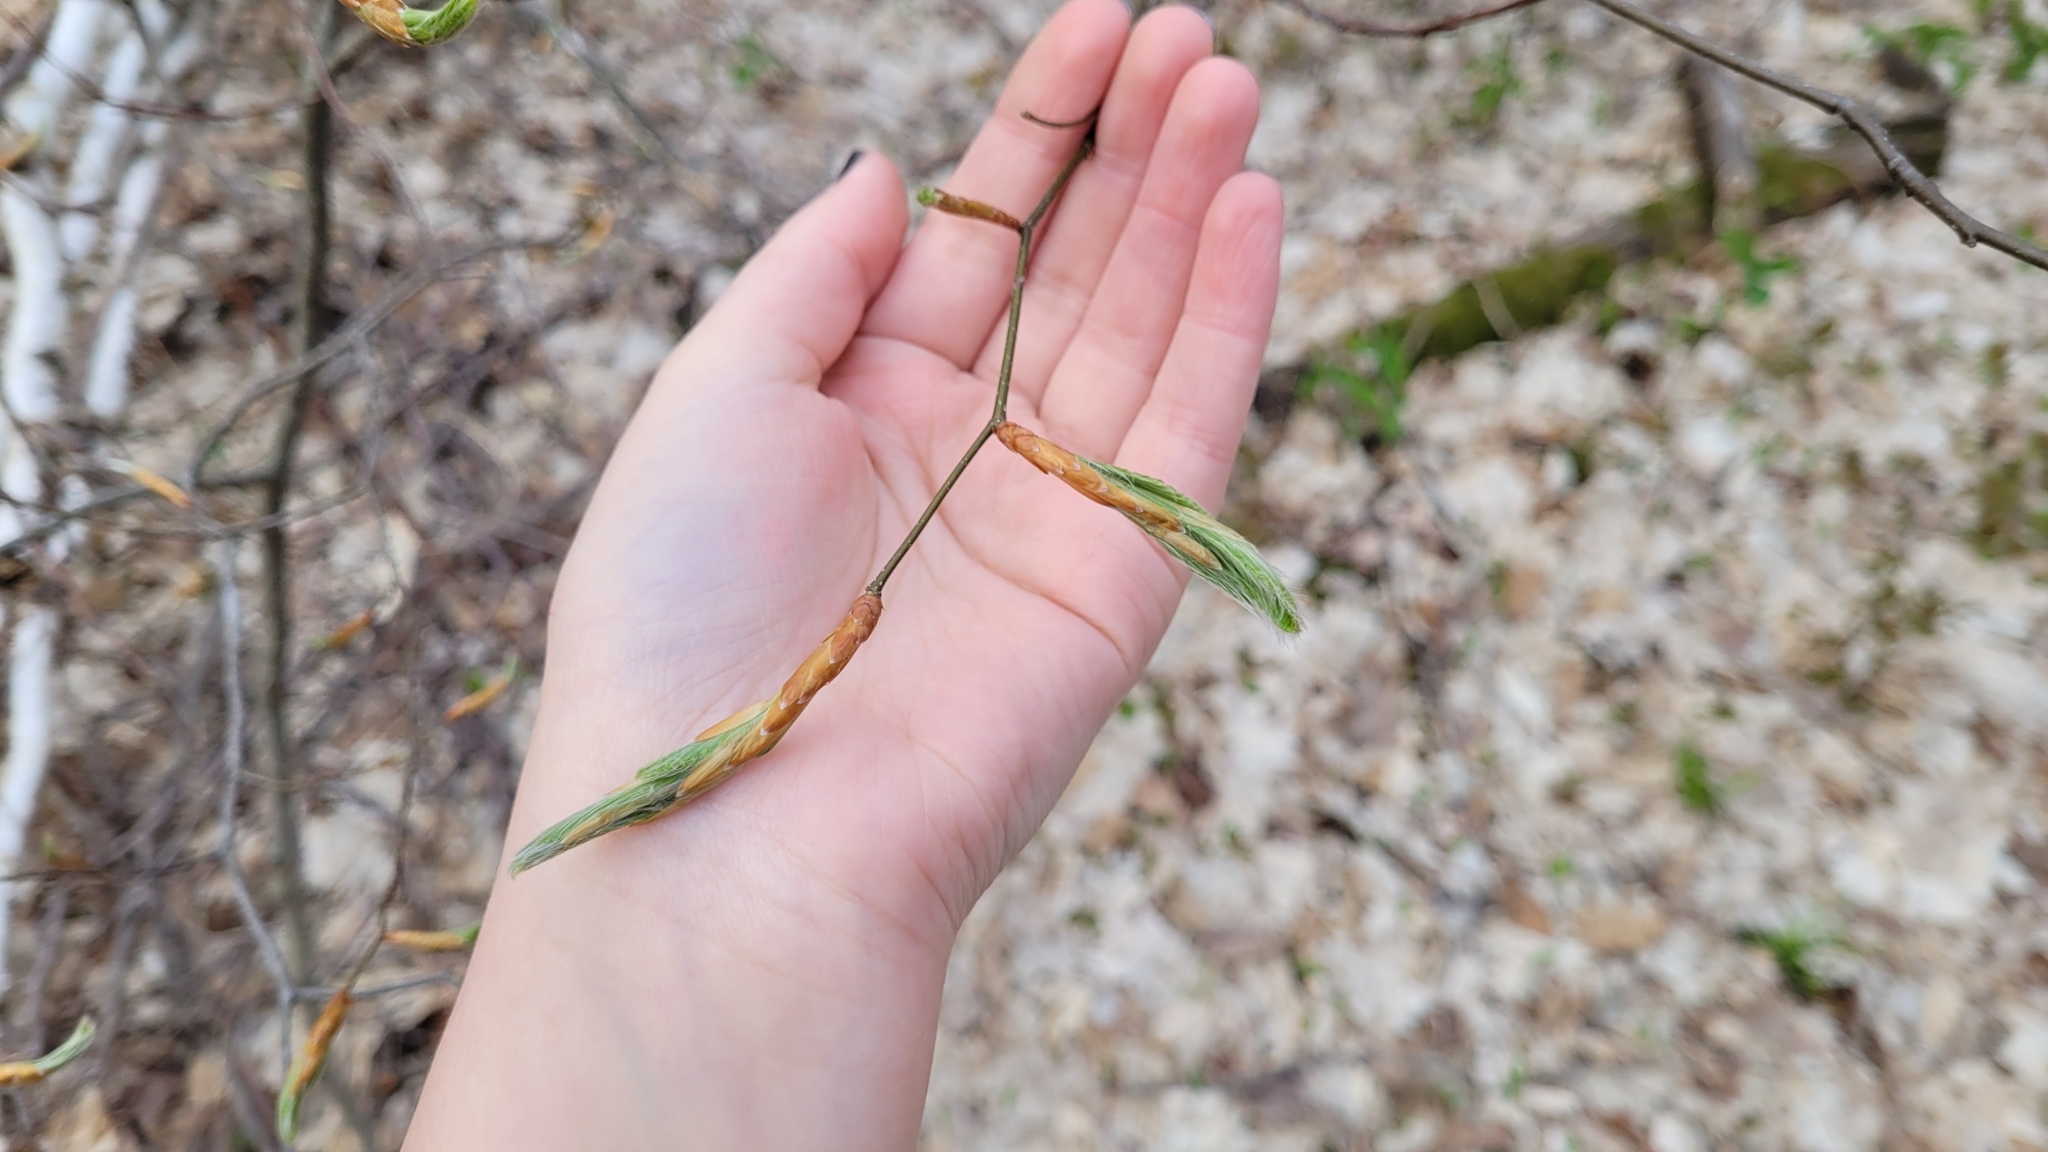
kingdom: Plantae
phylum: Tracheophyta
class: Magnoliopsida
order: Fagales
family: Fagaceae
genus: Fagus
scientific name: Fagus grandifolia
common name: American beech
